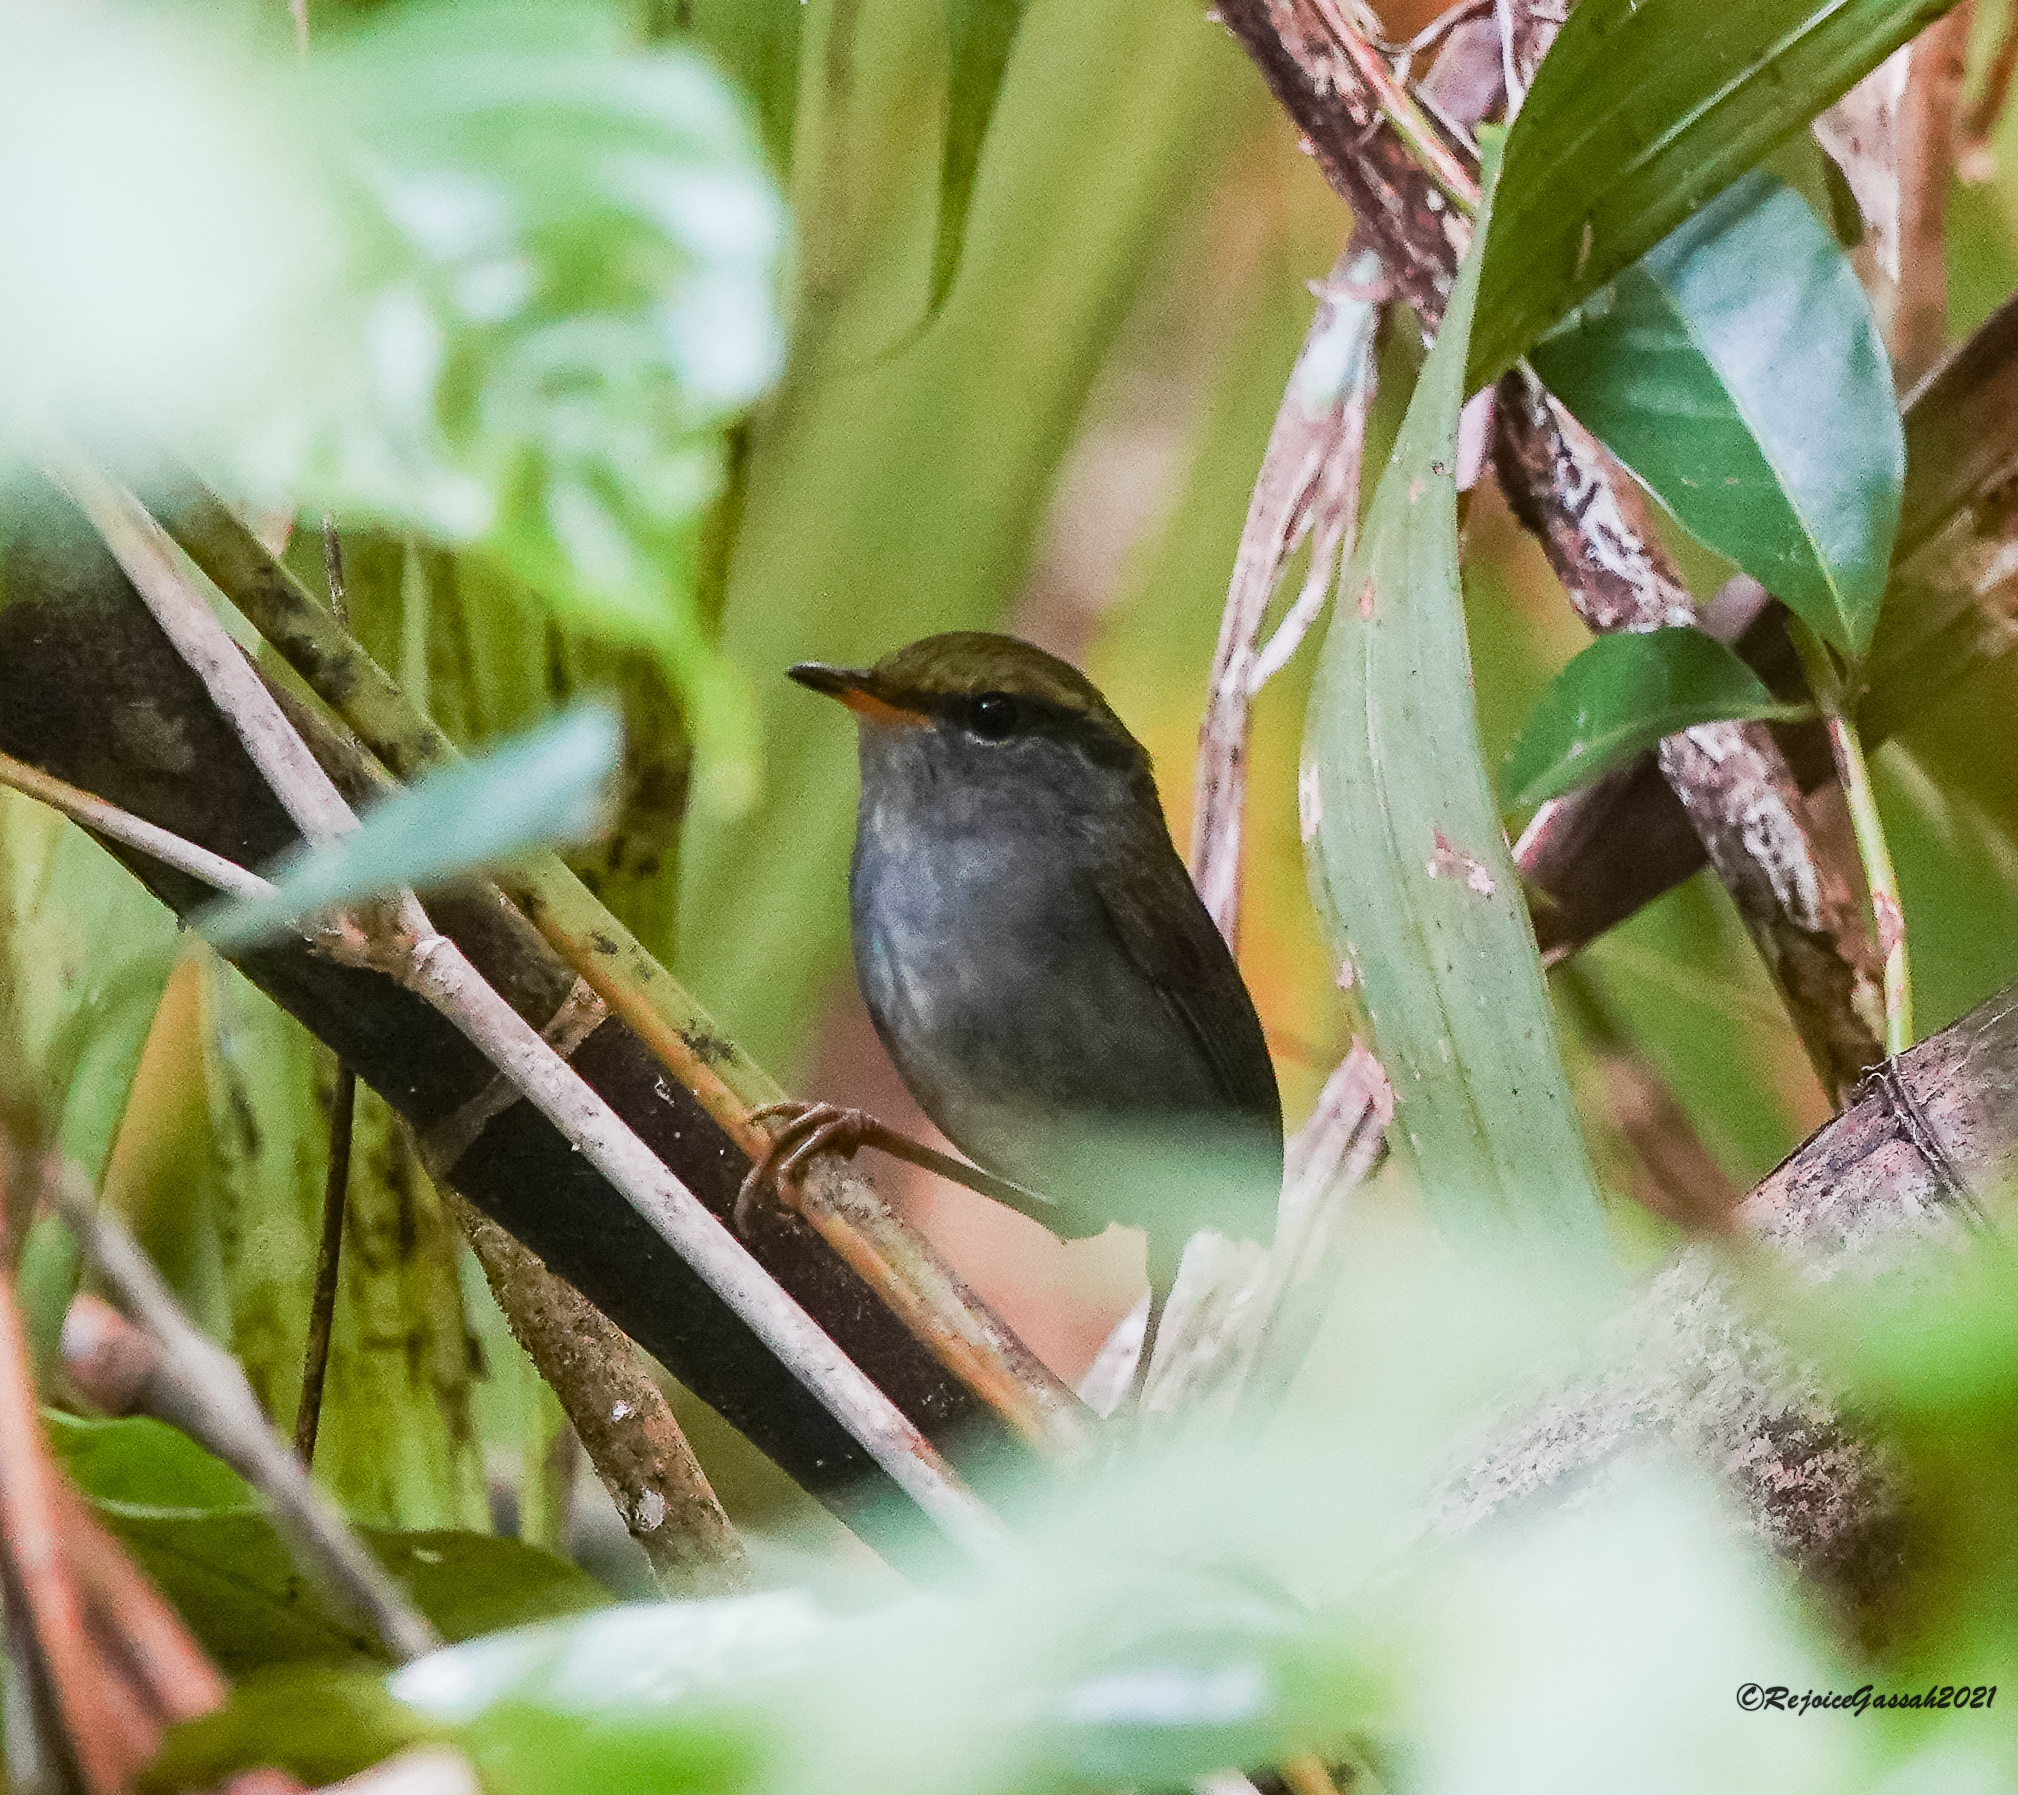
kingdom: Animalia
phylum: Chordata
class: Aves
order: Passeriformes
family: Cettiidae
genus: Tesia
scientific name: Tesia cyaniventer
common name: Grey-bellied tesia
